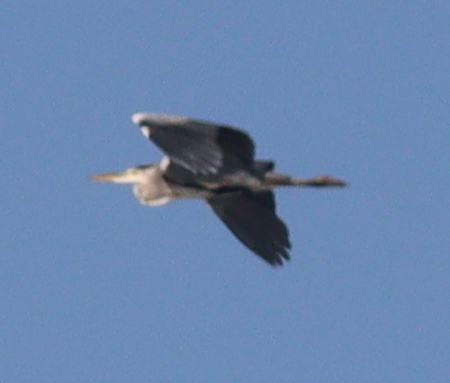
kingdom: Animalia
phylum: Chordata
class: Aves
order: Pelecaniformes
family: Ardeidae
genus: Ardea
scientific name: Ardea cinerea
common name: Grey heron
